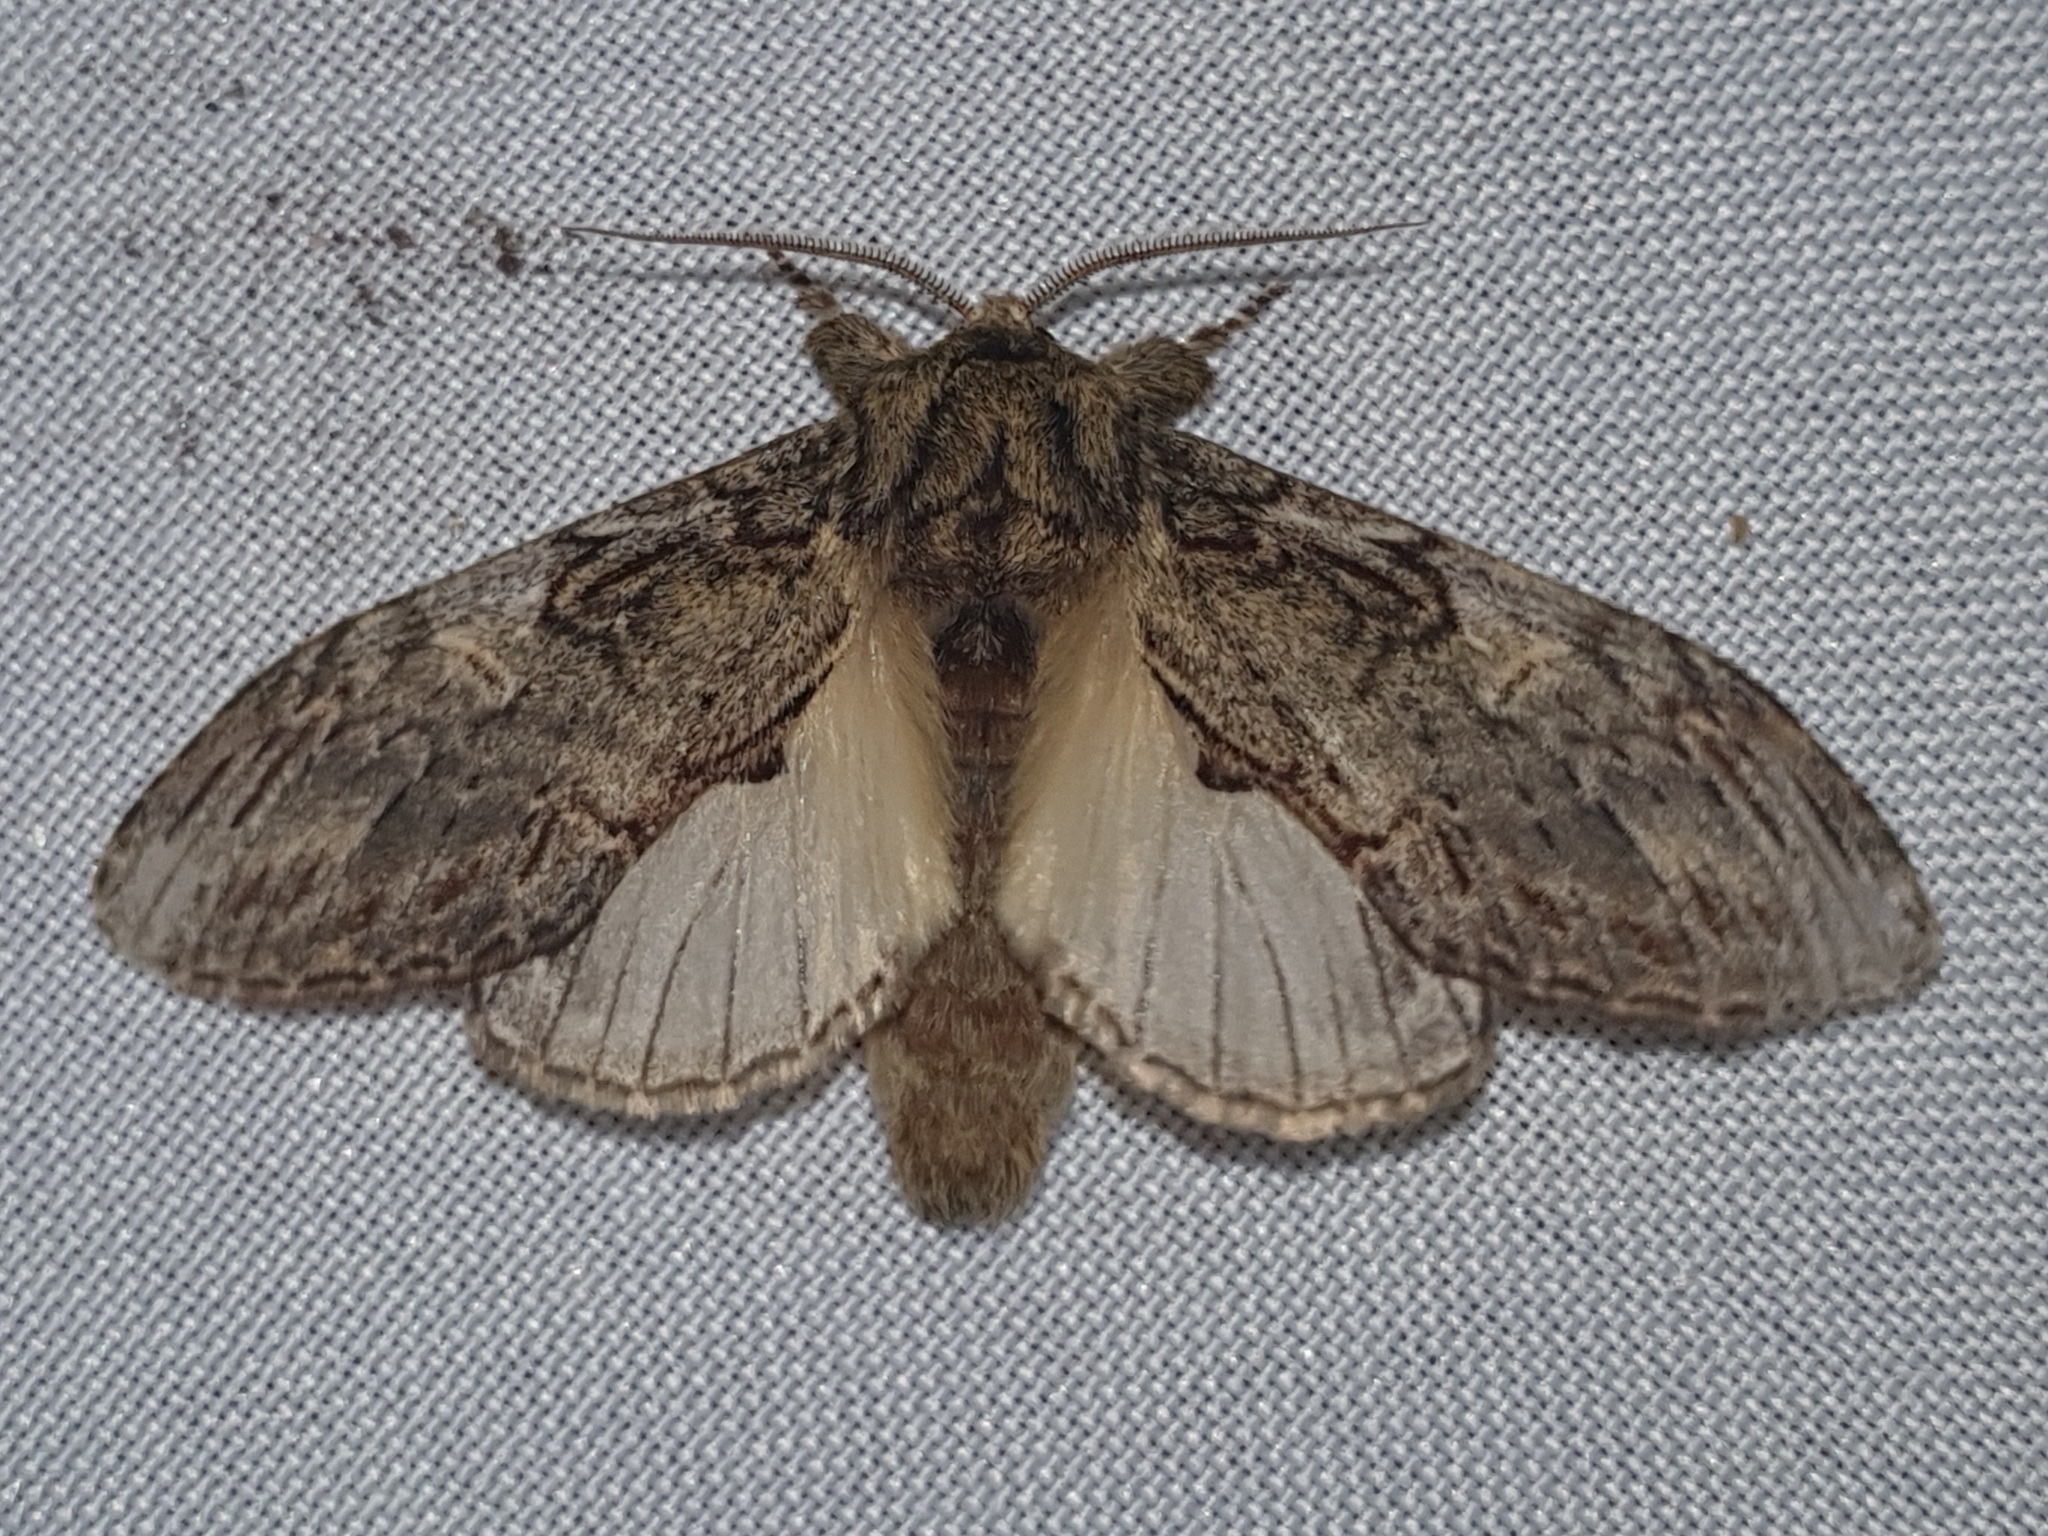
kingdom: Animalia
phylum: Arthropoda
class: Insecta
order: Lepidoptera
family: Notodontidae
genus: Peridea
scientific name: Peridea anceps
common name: Great prominent
